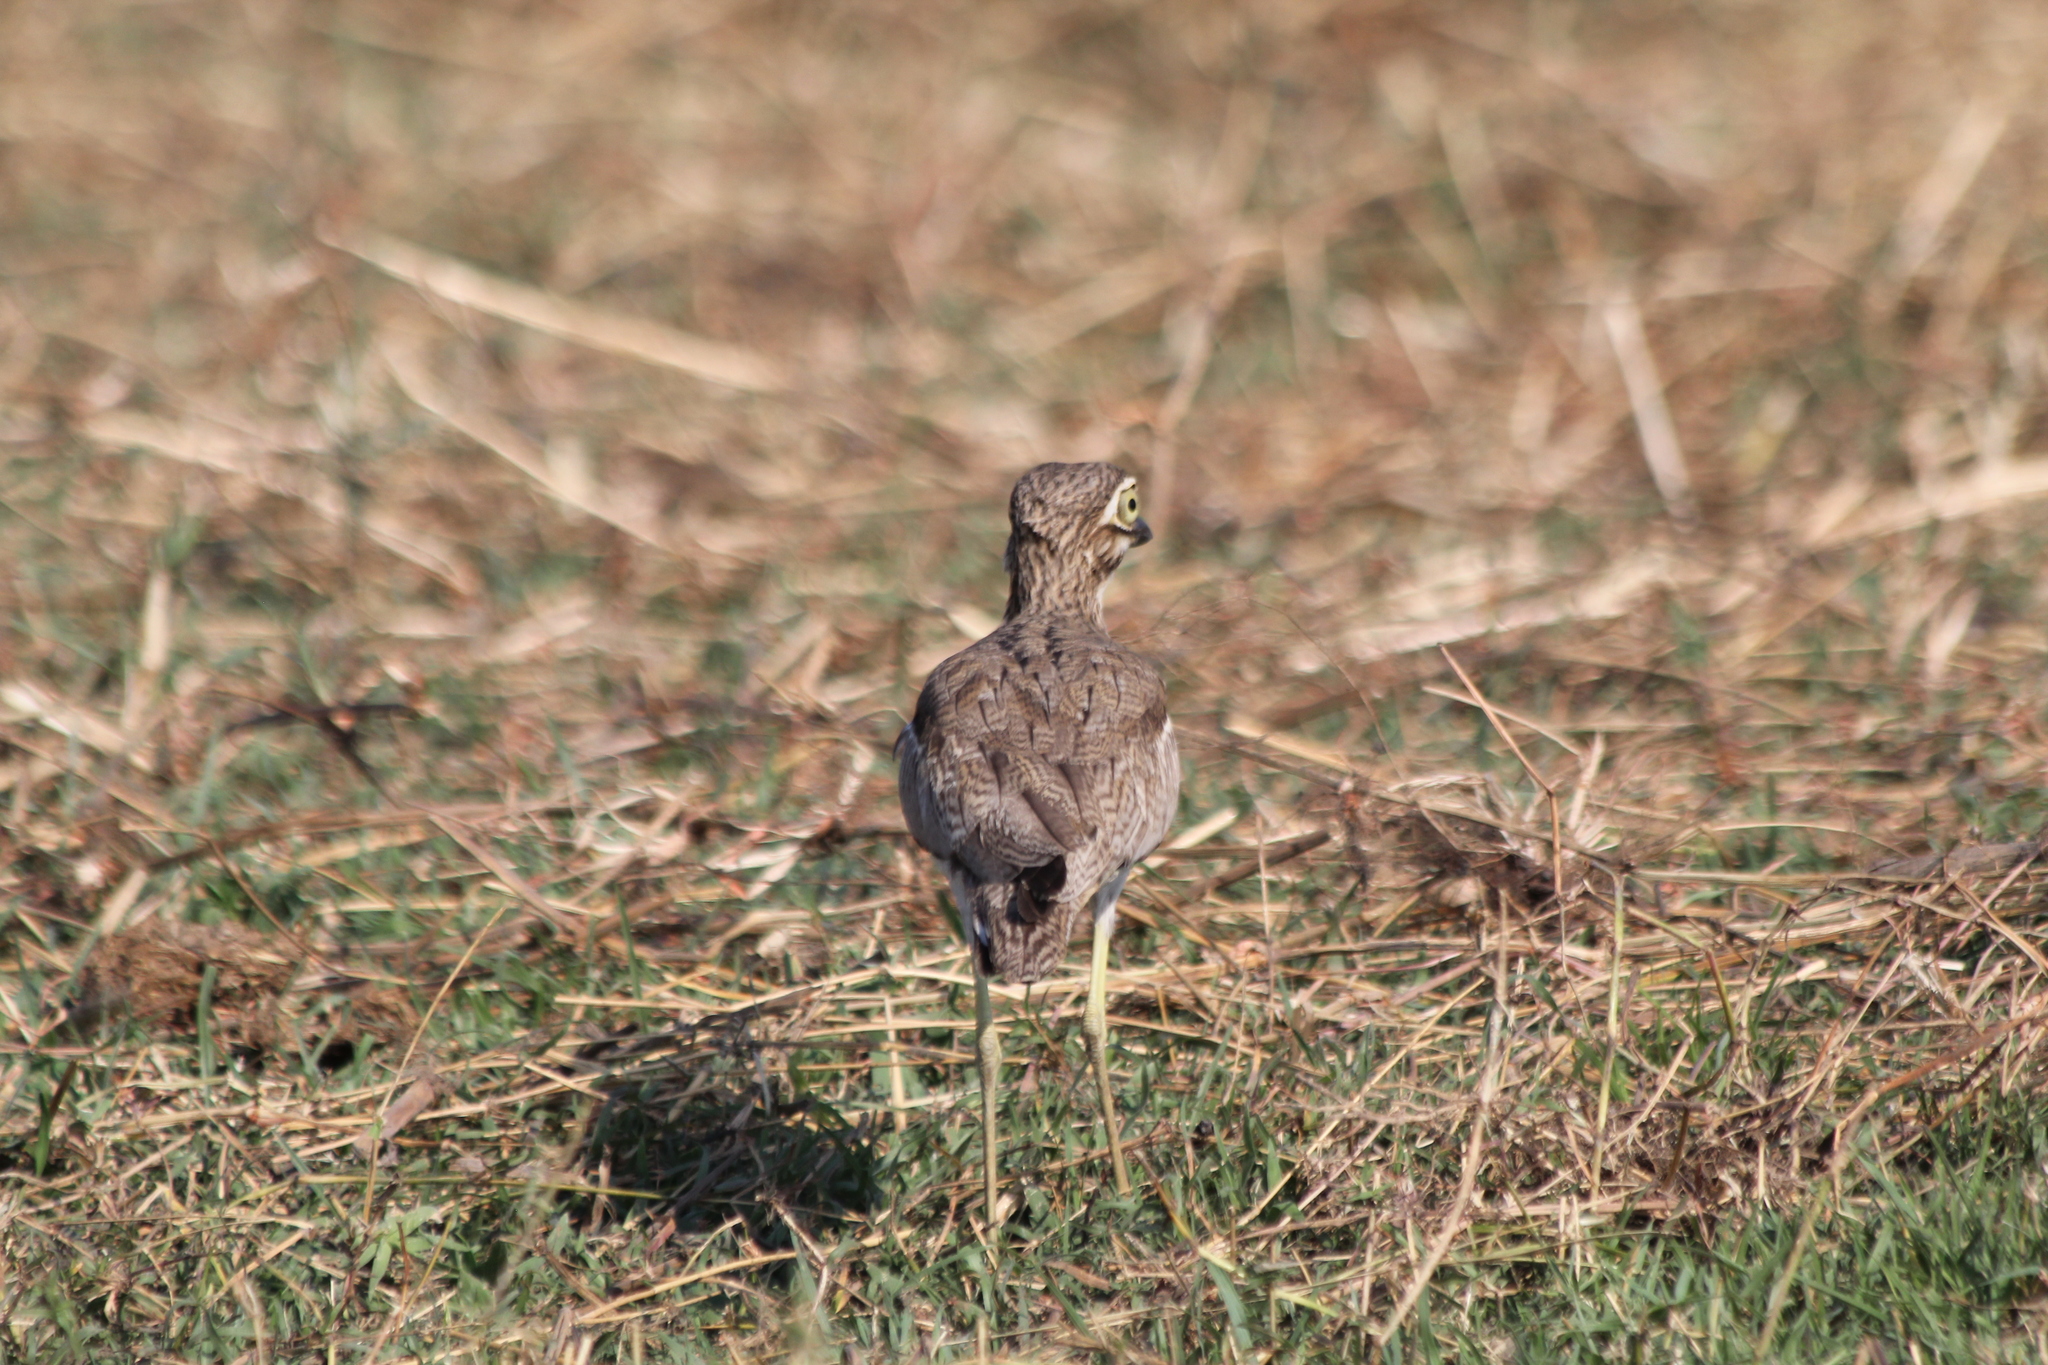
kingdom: Animalia
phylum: Chordata
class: Aves
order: Charadriiformes
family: Burhinidae
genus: Burhinus
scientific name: Burhinus vermiculatus
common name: Water thick-knee
